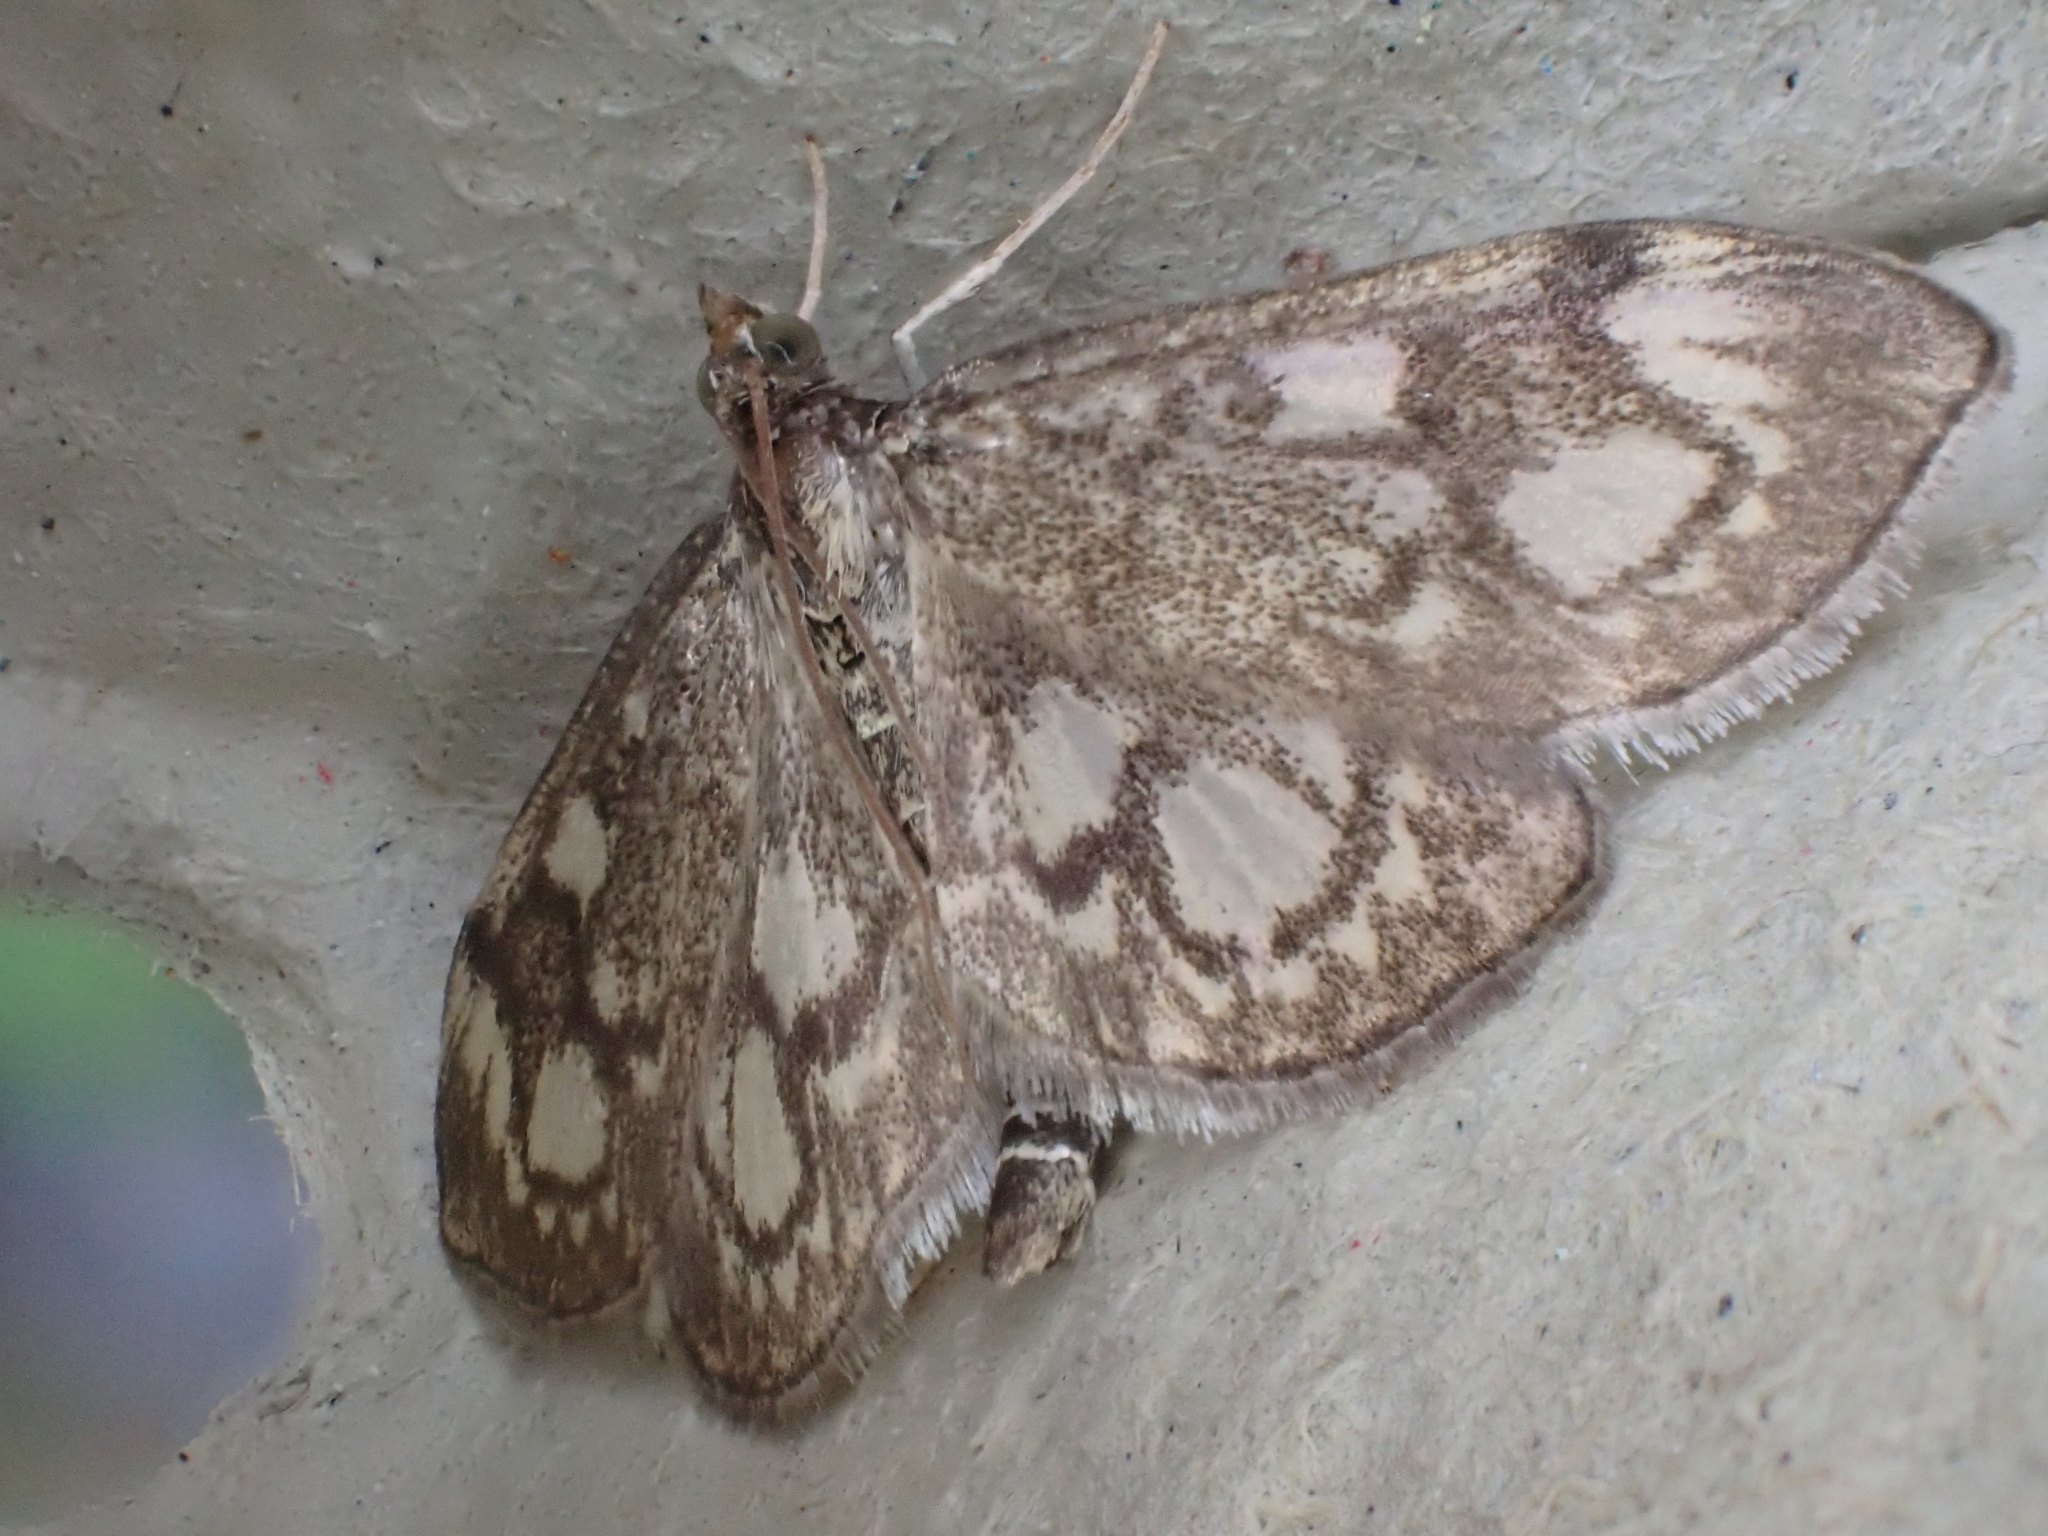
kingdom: Animalia
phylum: Arthropoda
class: Insecta
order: Lepidoptera
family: Crambidae
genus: Anania
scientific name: Anania coronata
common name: Elder pearl
